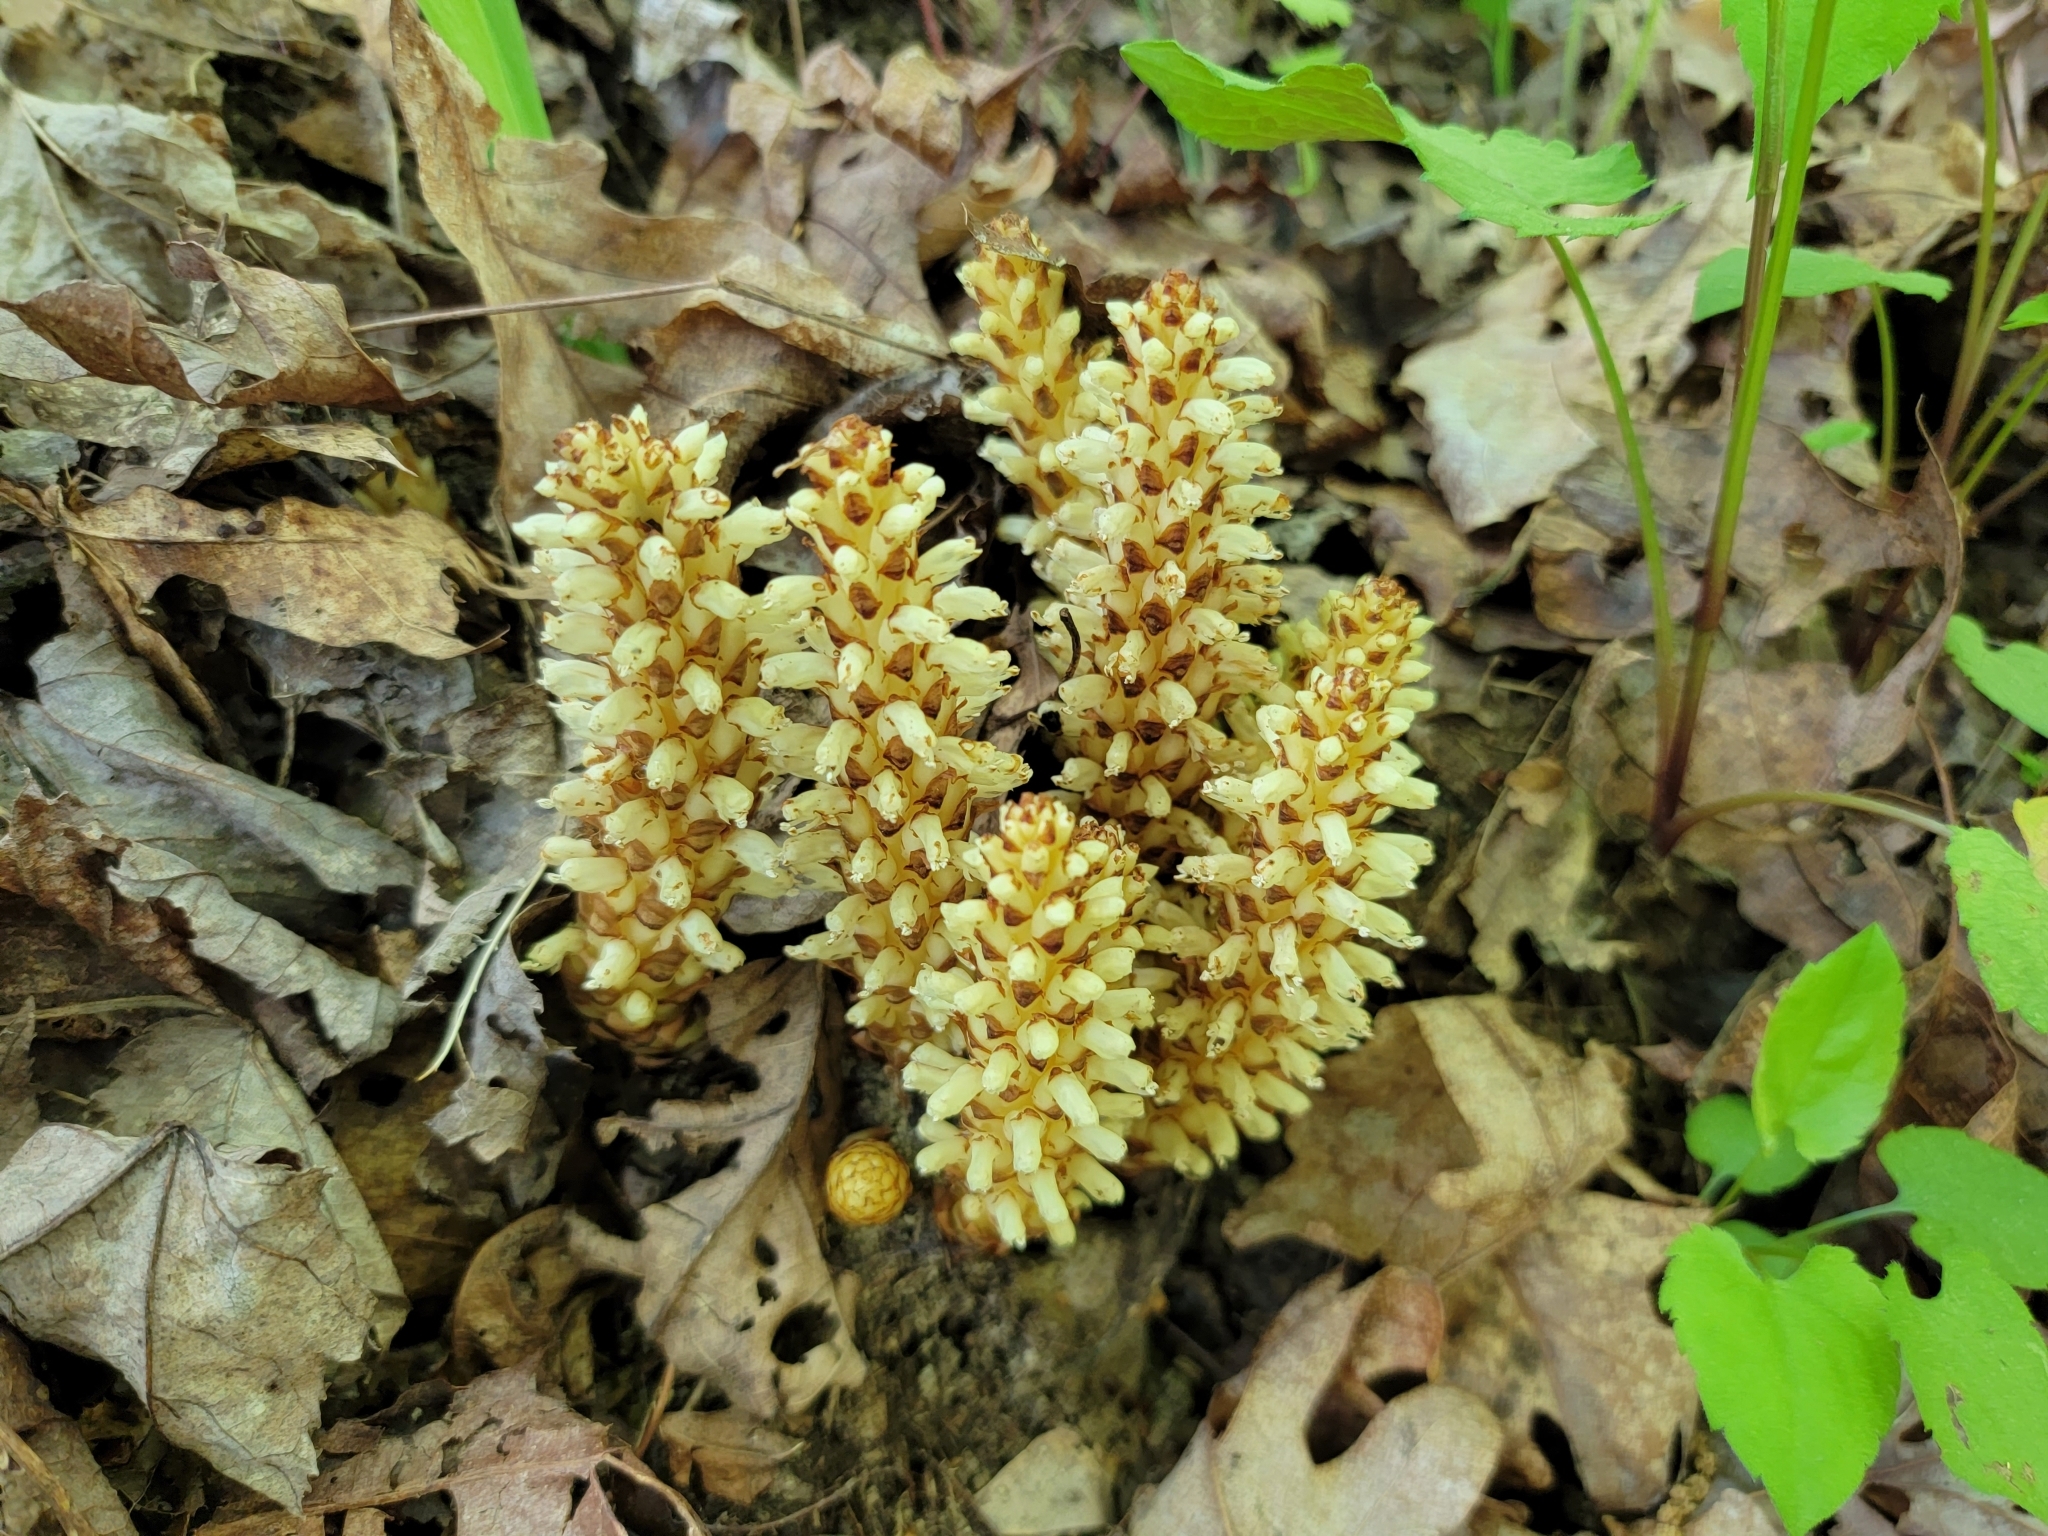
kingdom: Plantae
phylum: Tracheophyta
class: Magnoliopsida
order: Lamiales
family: Orobanchaceae
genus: Conopholis
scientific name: Conopholis americana
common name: American cancer-root
